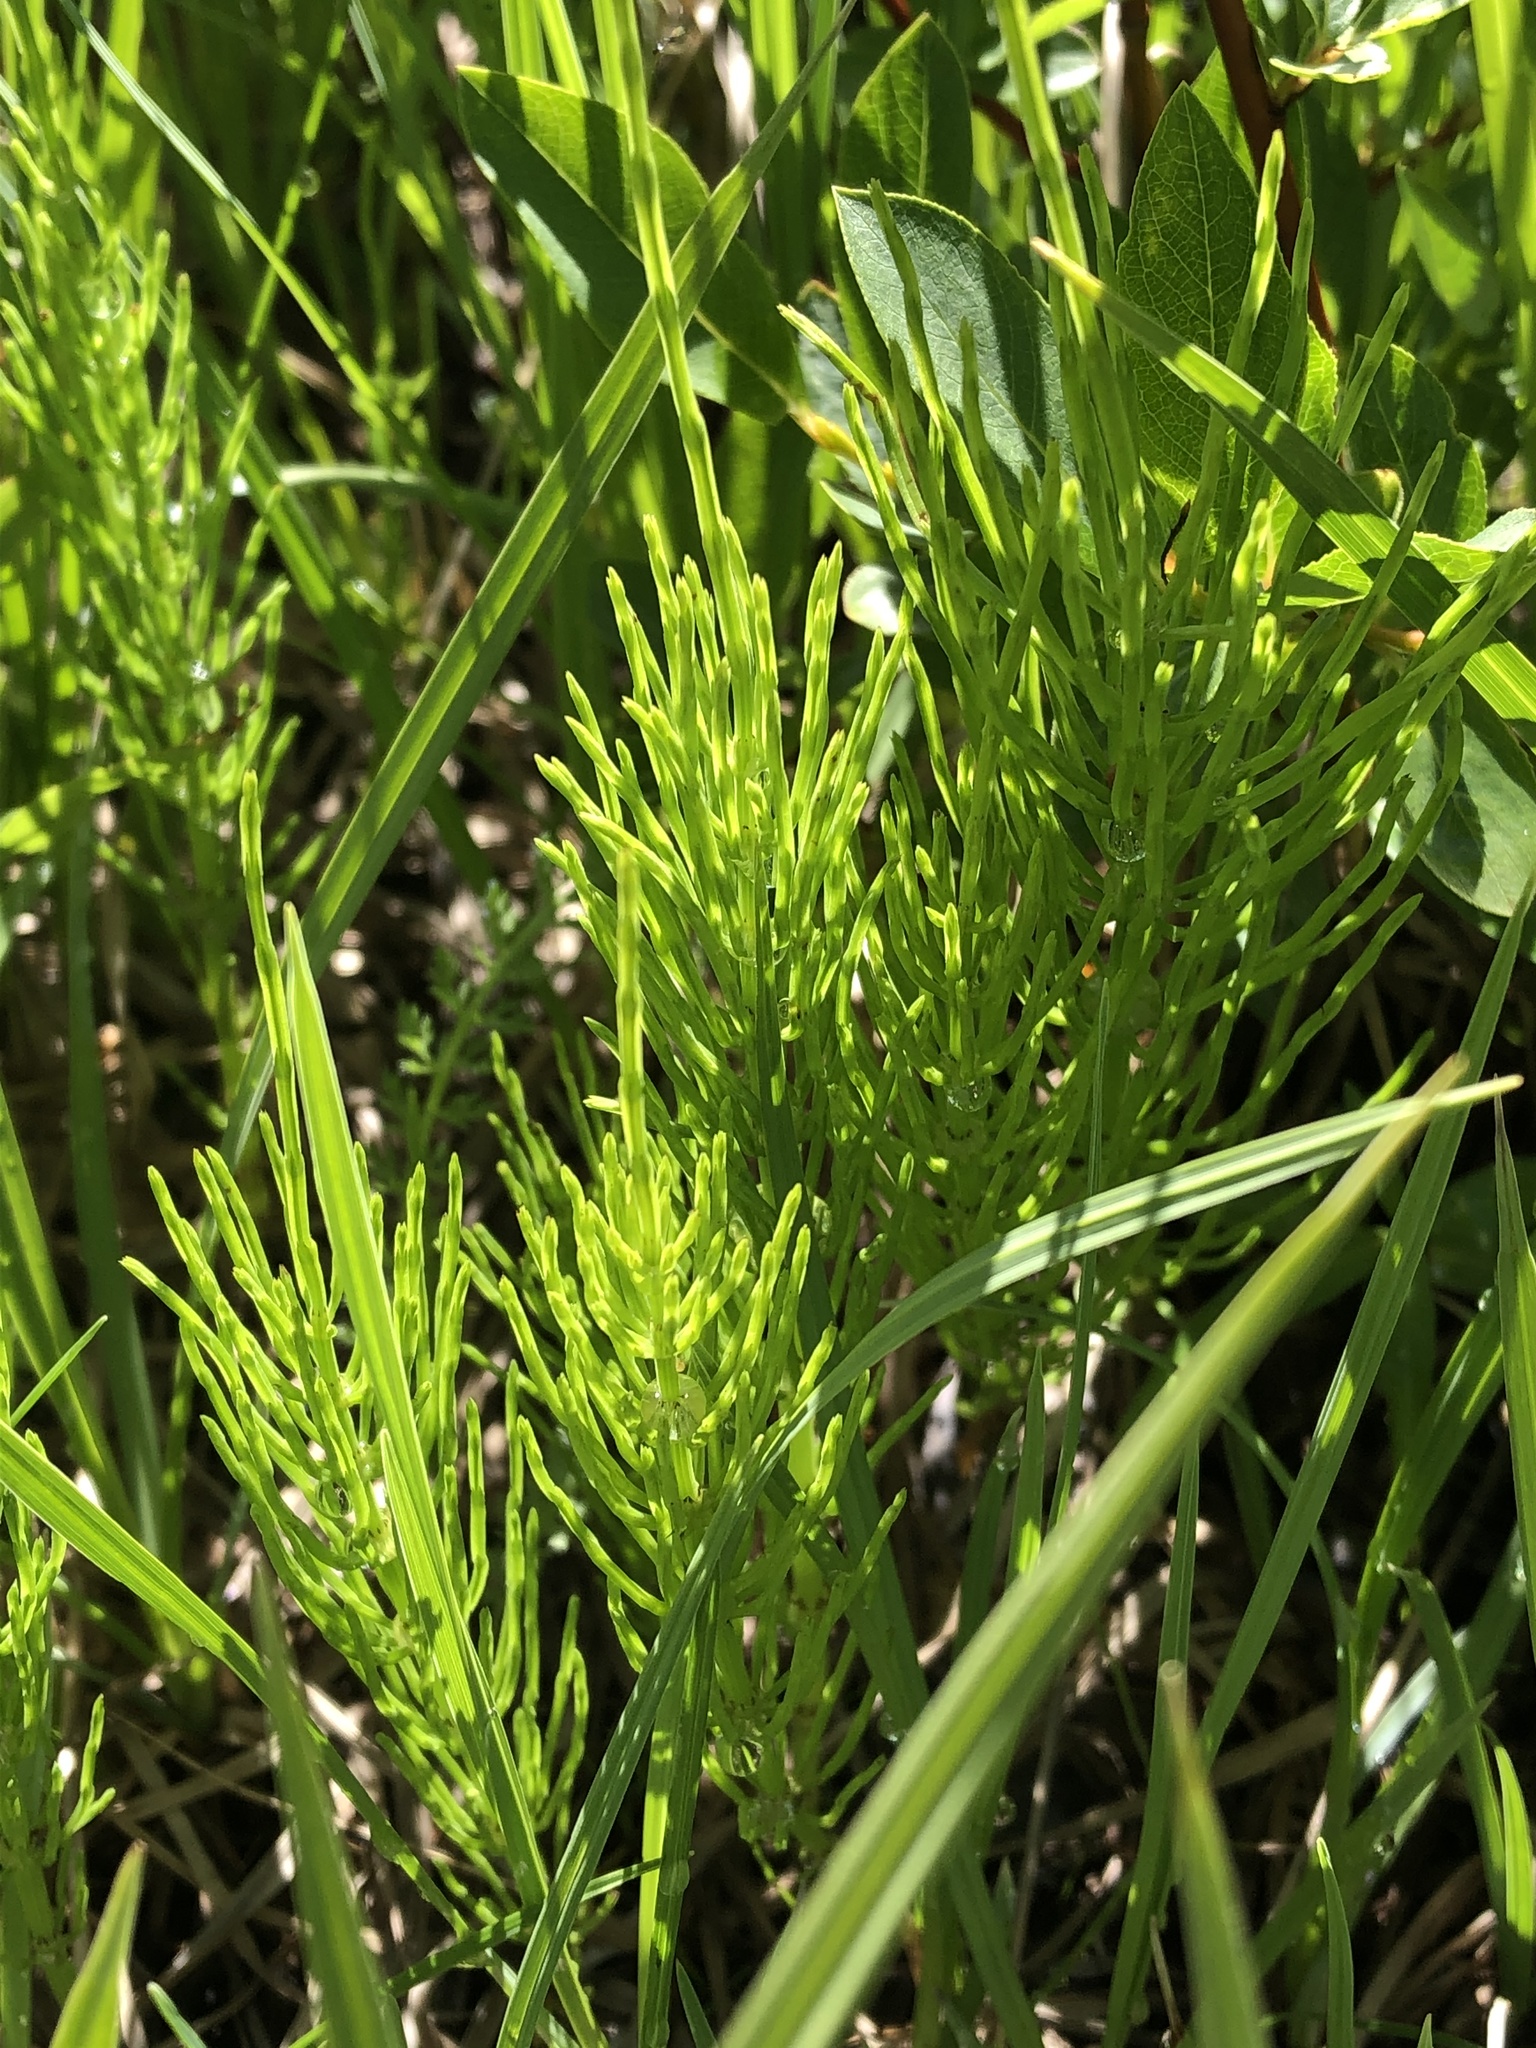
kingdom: Plantae
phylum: Tracheophyta
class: Polypodiopsida
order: Equisetales
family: Equisetaceae
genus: Equisetum
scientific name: Equisetum arvense
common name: Field horsetail
